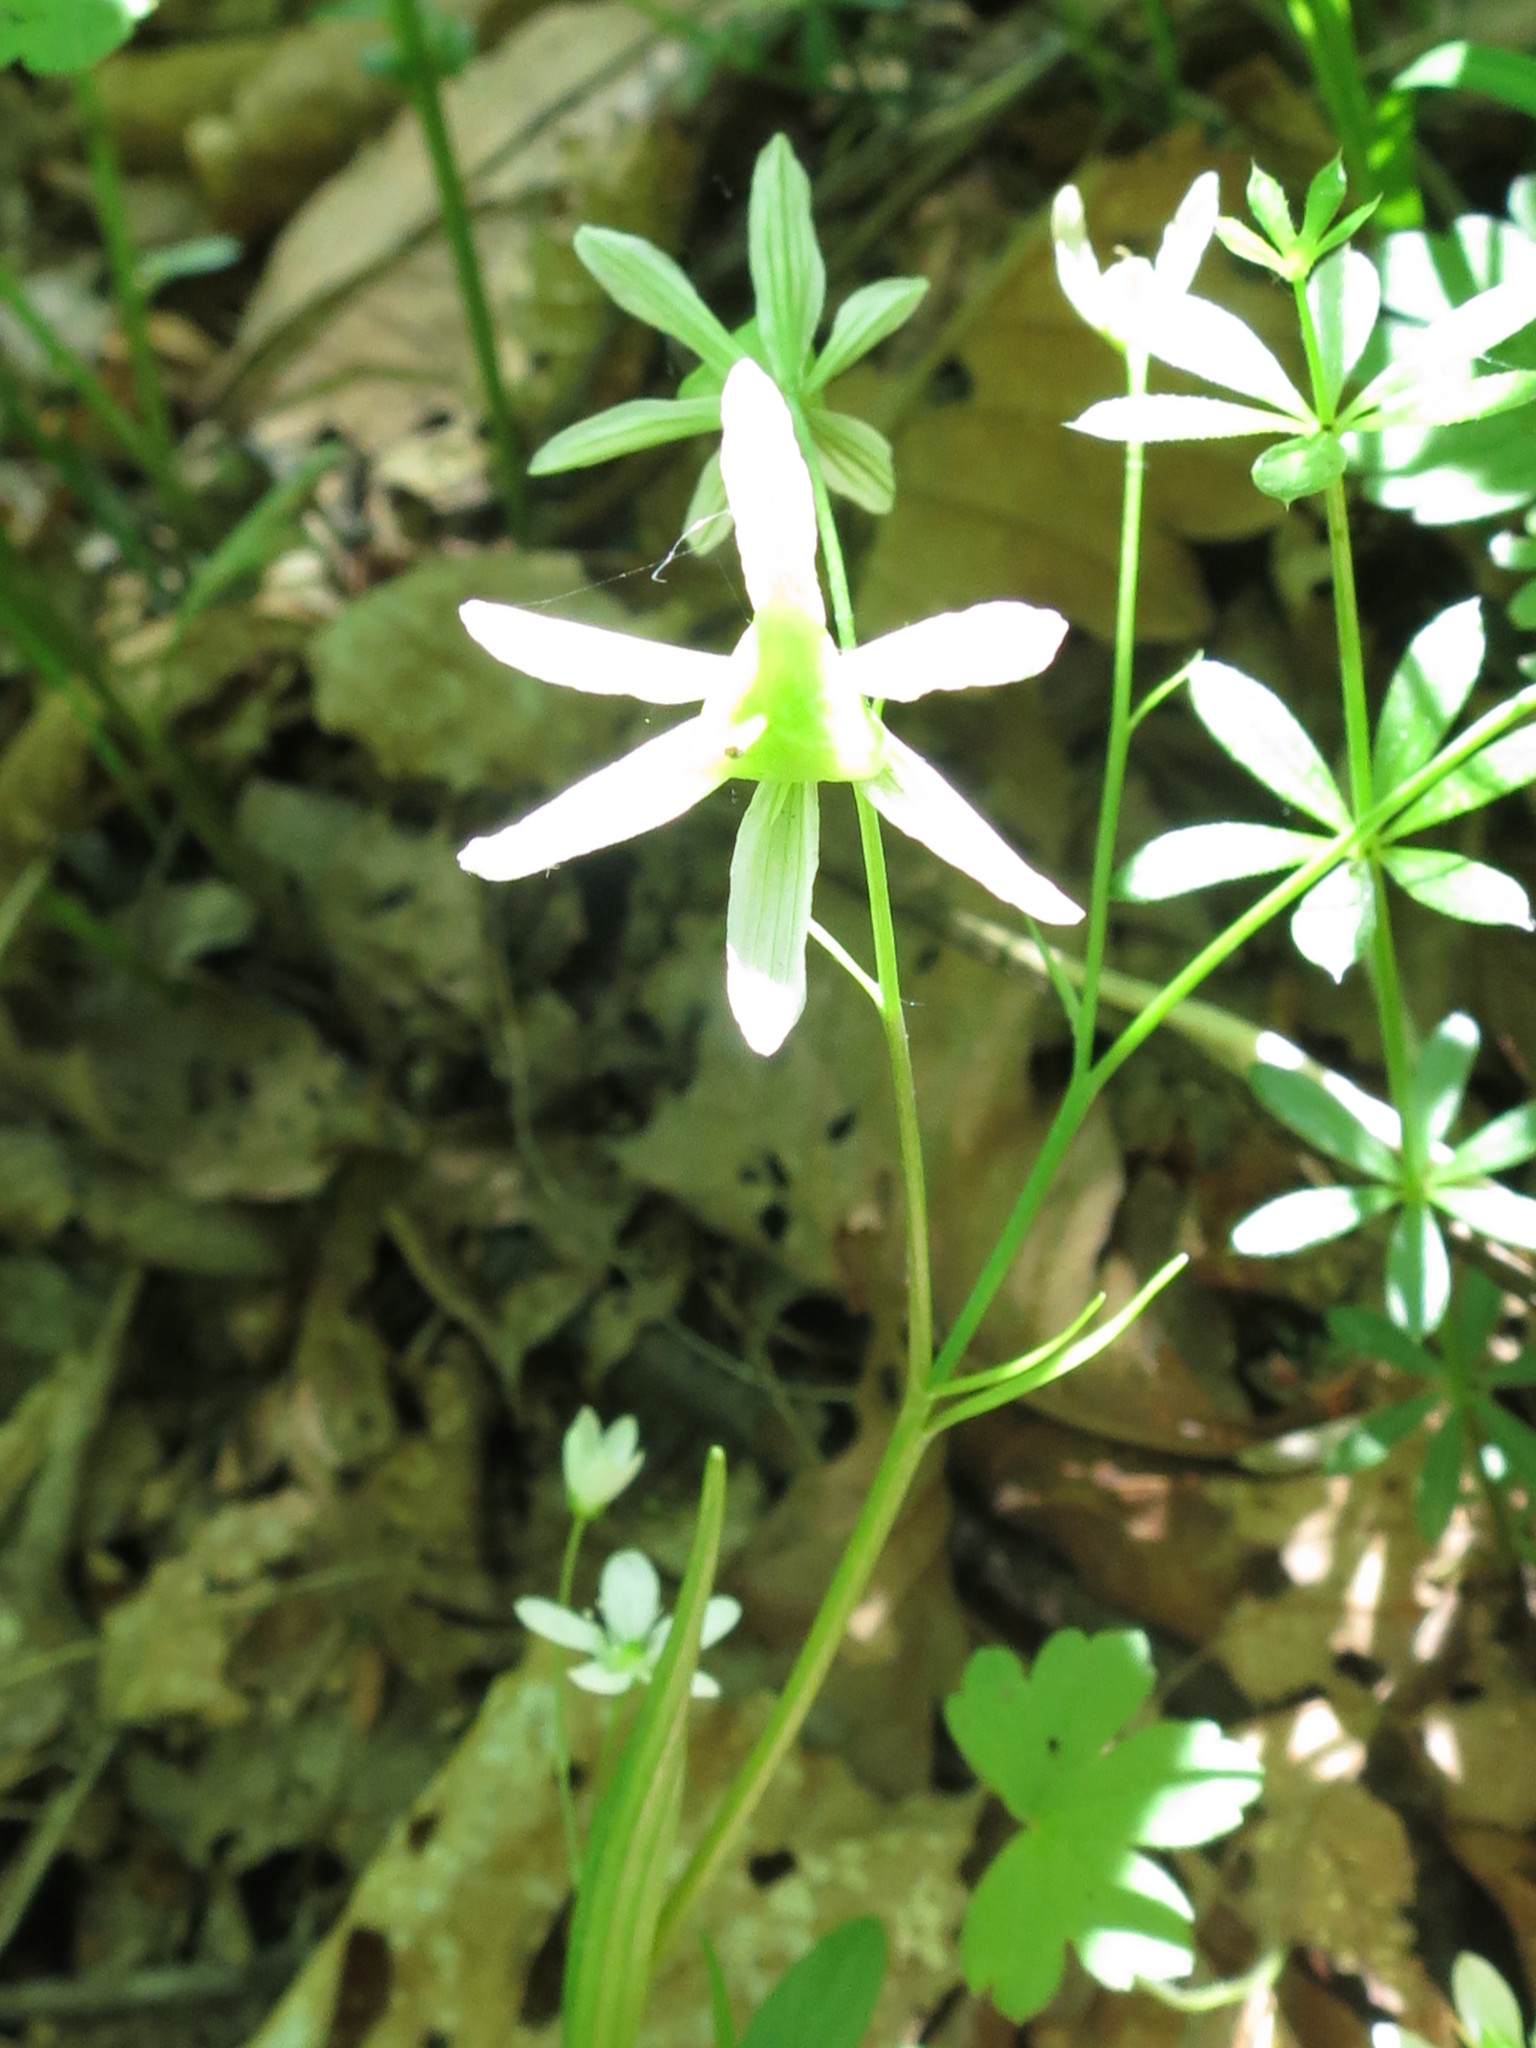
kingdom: Plantae
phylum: Tracheophyta
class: Liliopsida
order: Liliales
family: Liliaceae
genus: Gagea
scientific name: Gagea triflora
